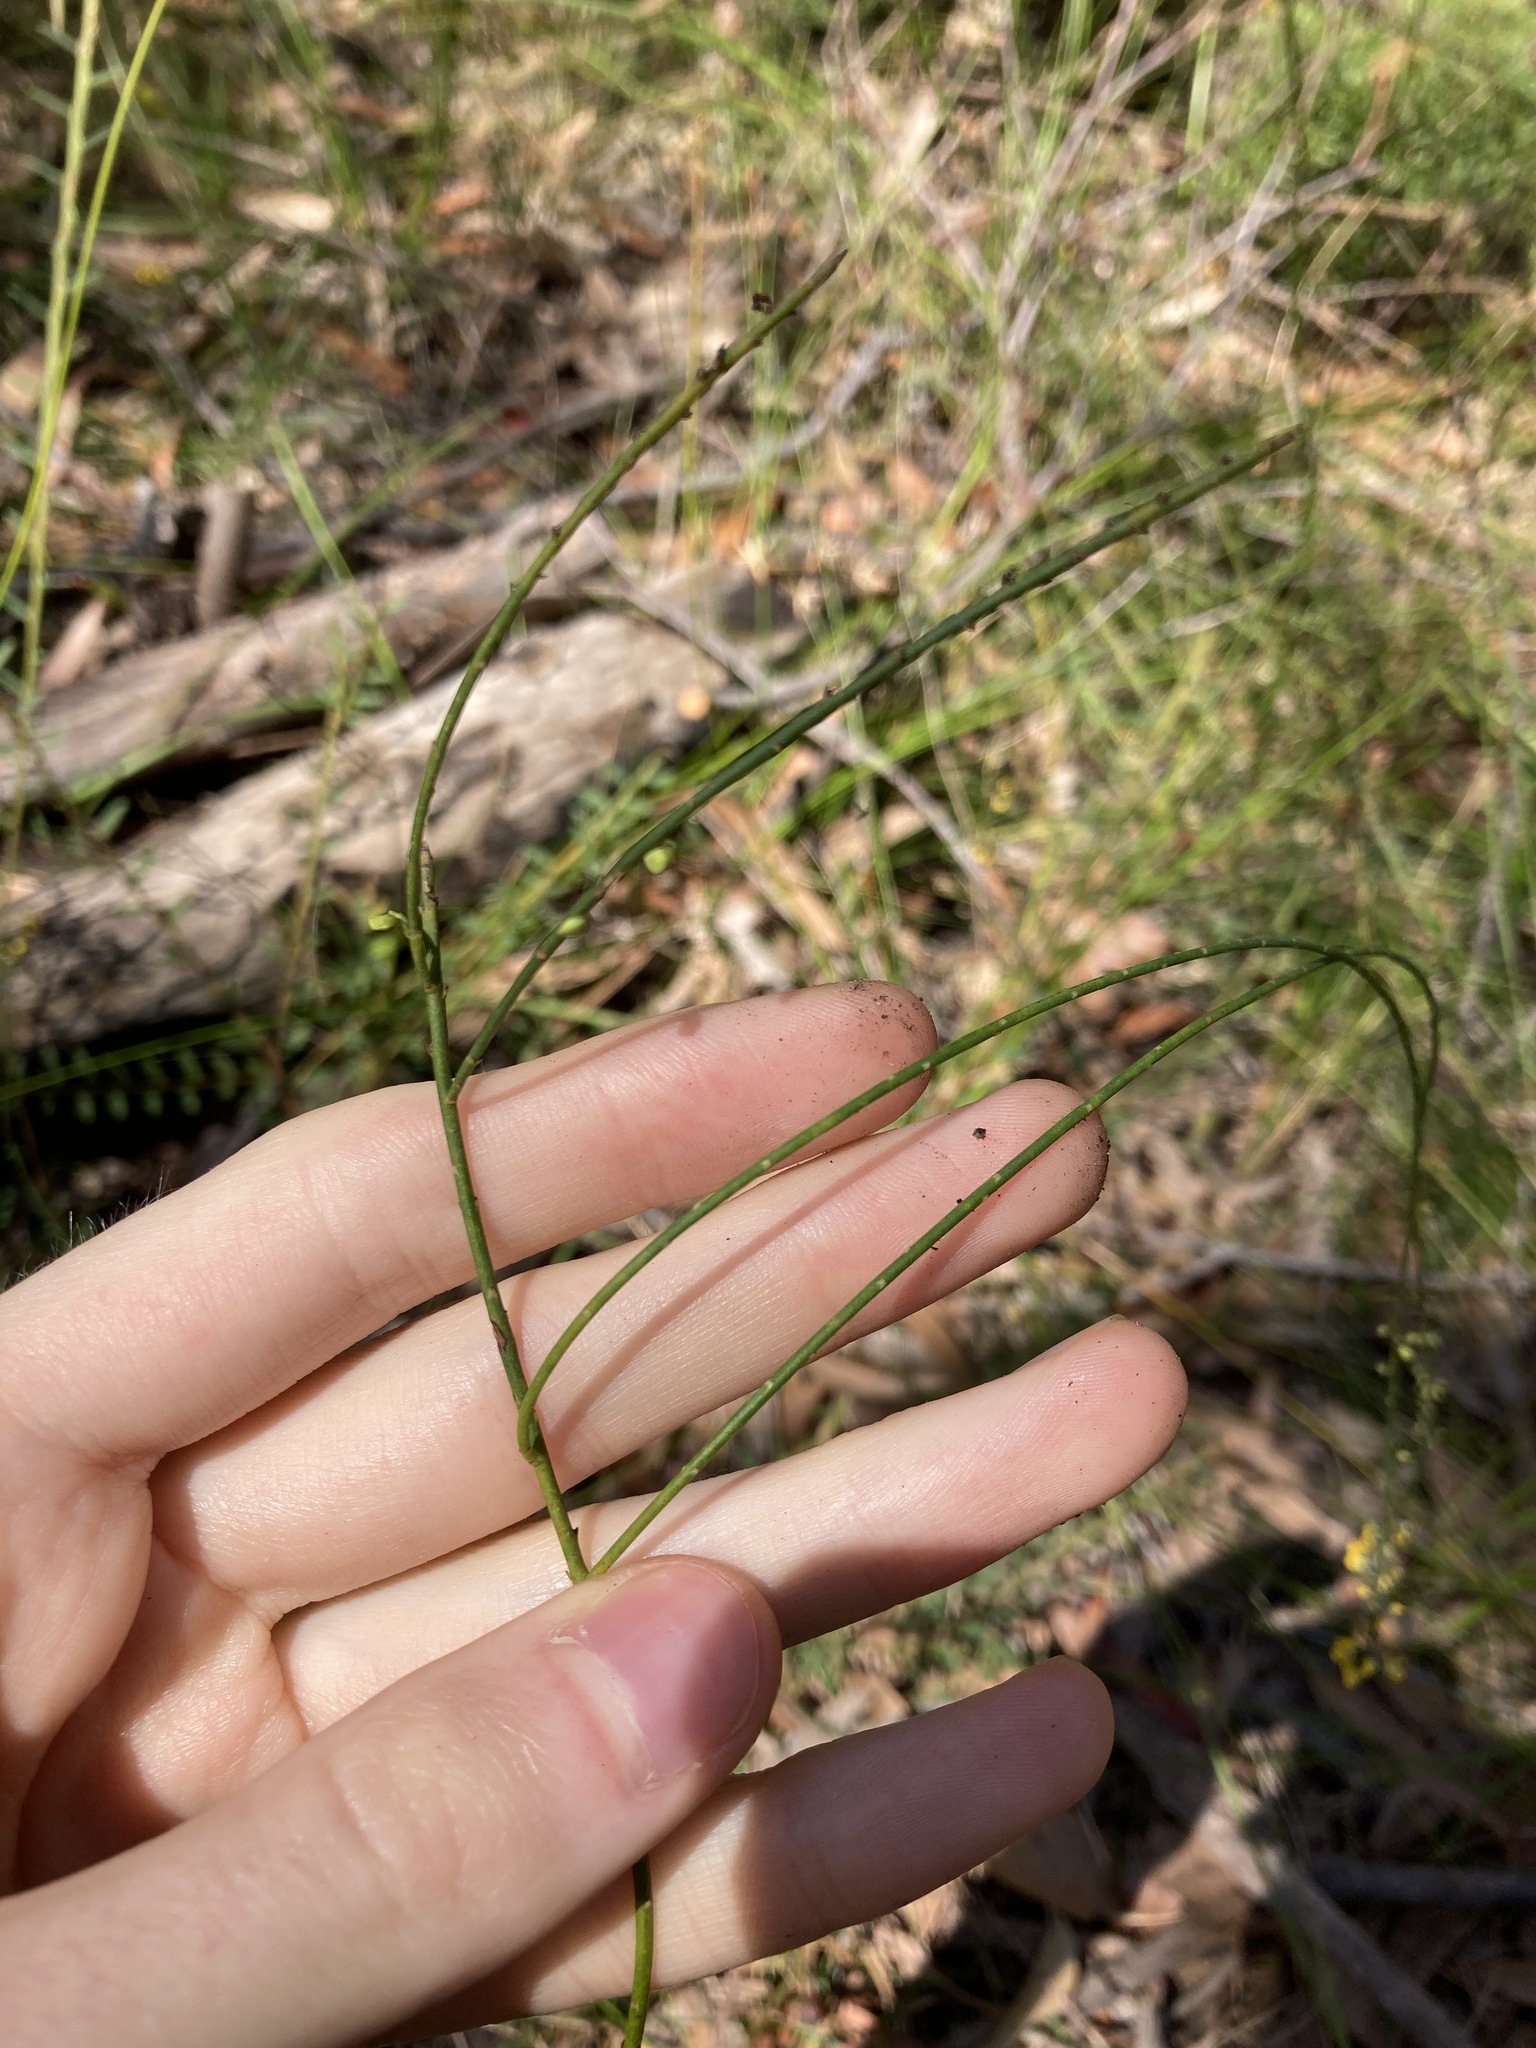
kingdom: Plantae
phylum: Tracheophyta
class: Magnoliopsida
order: Fabales
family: Fabaceae
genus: Sphaerolobium
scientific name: Sphaerolobium minus
